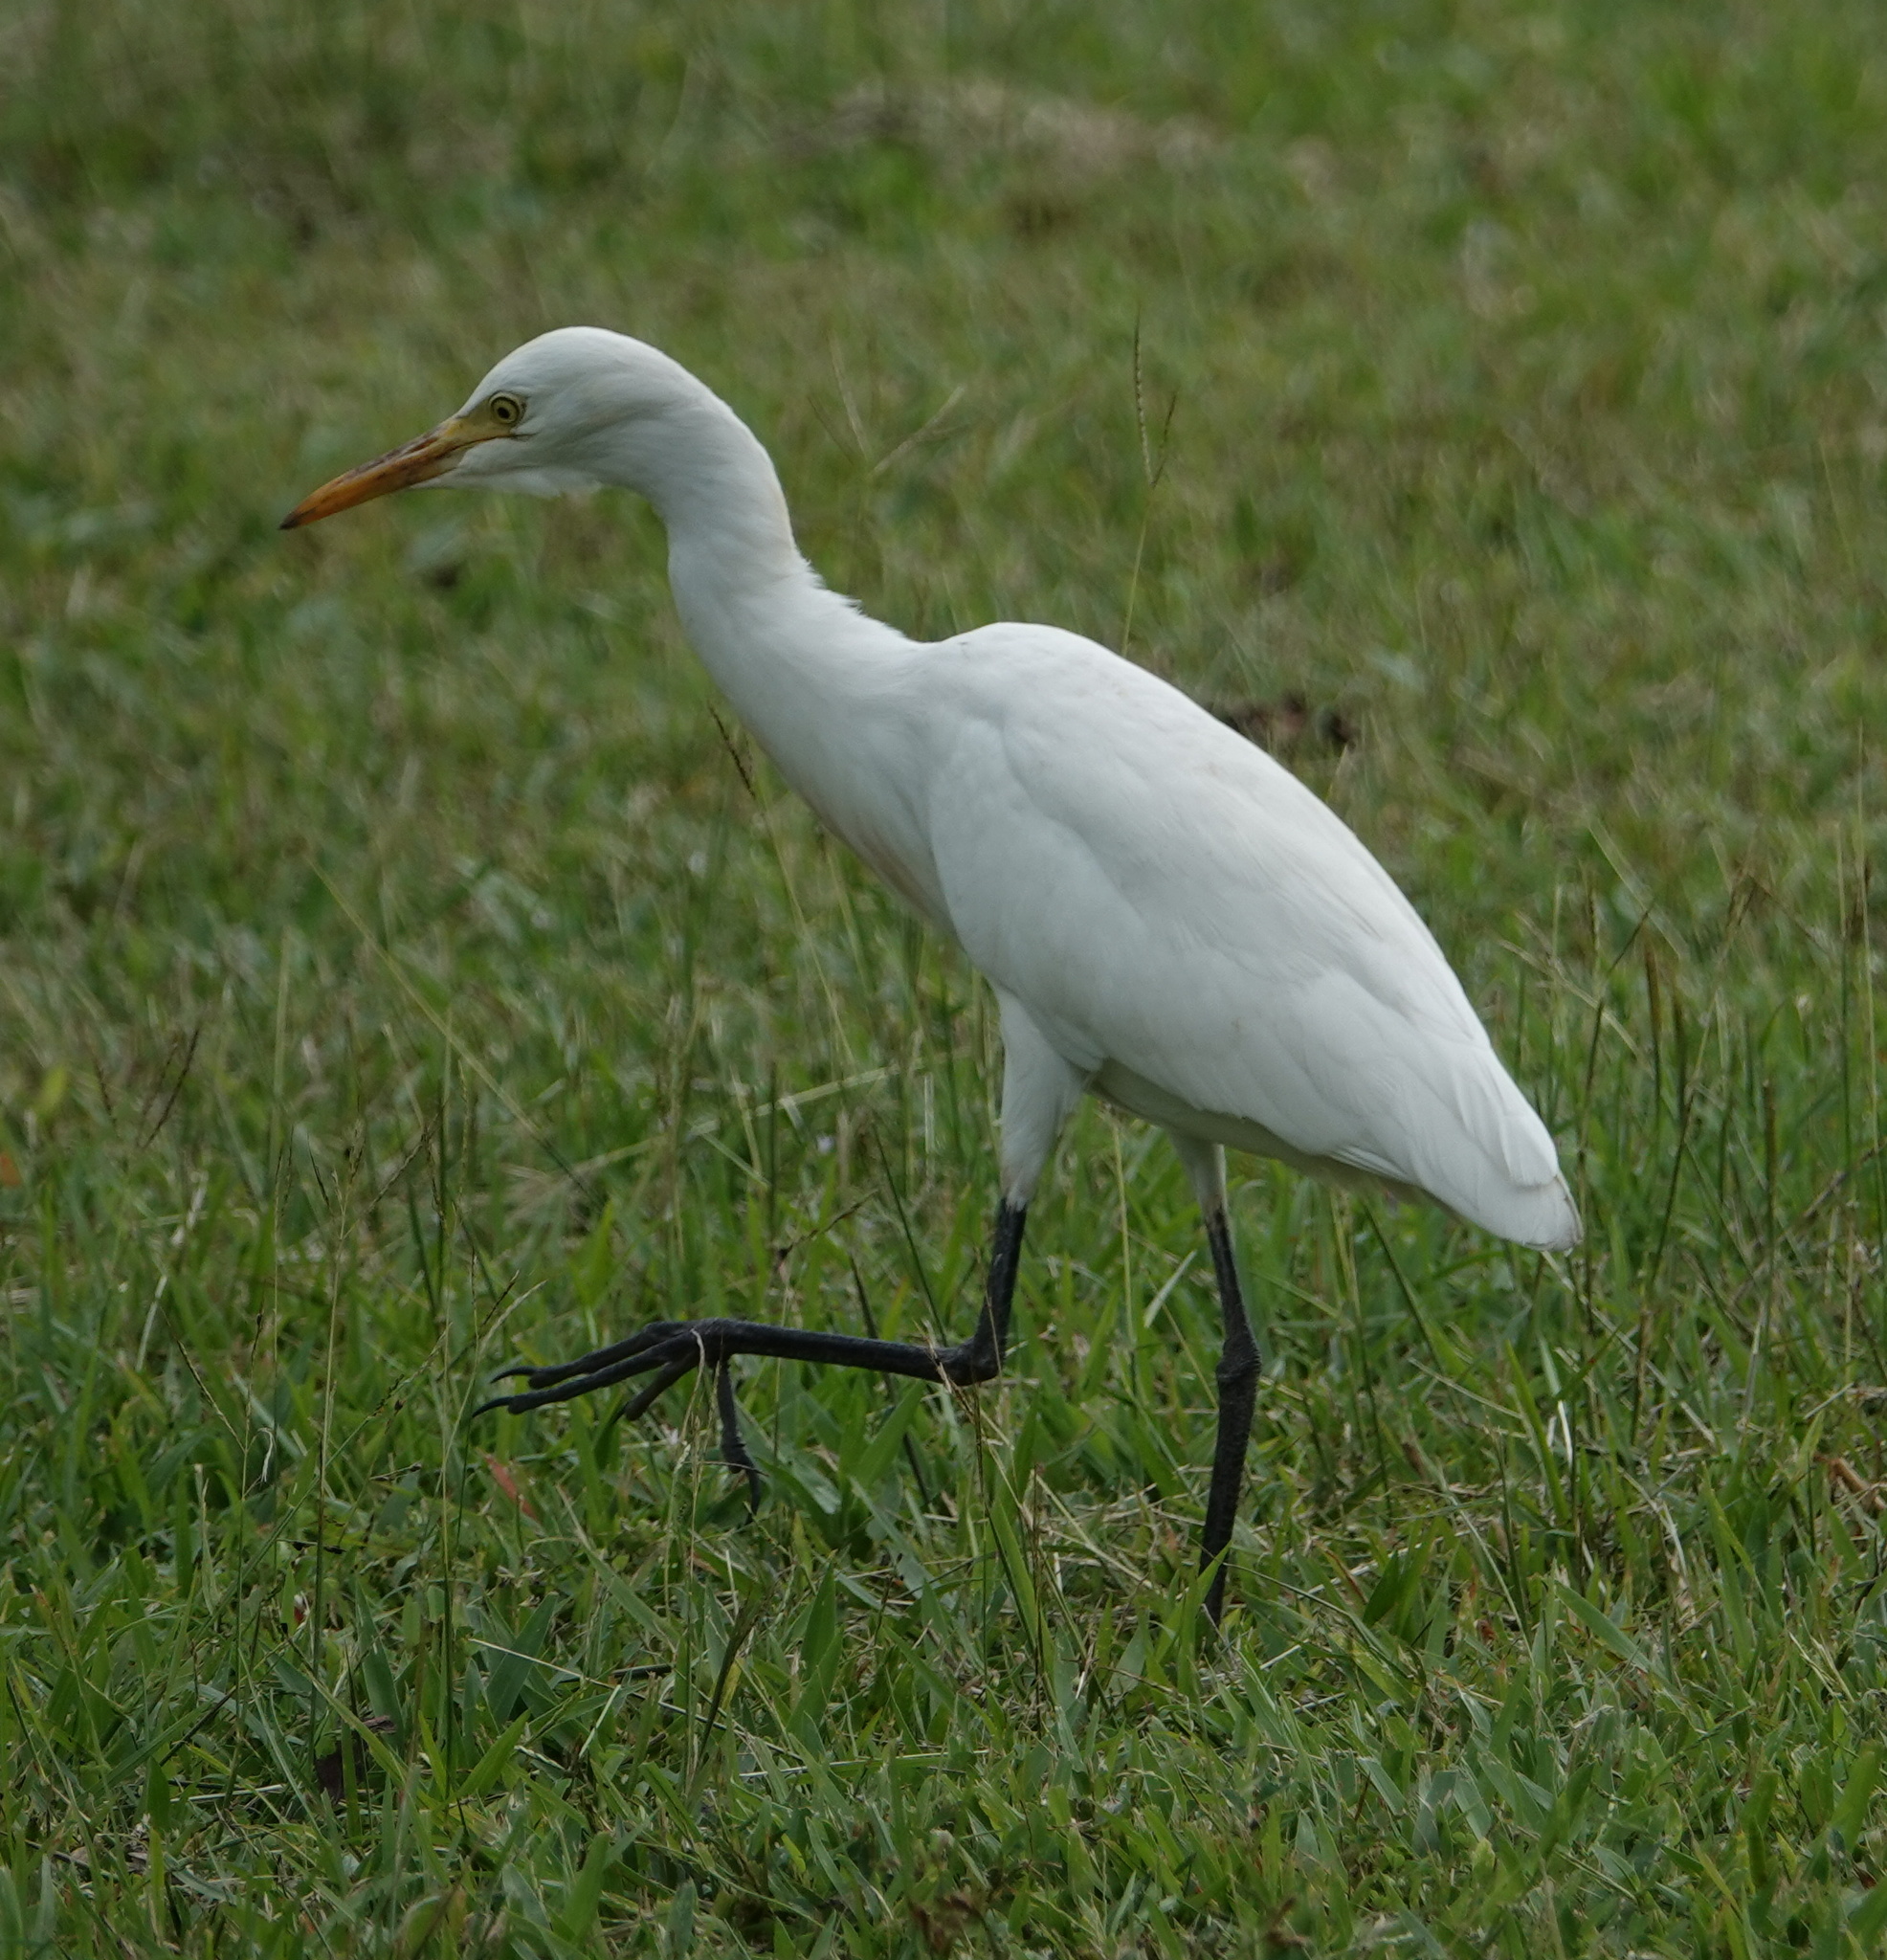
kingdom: Animalia
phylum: Chordata
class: Aves
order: Pelecaniformes
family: Ardeidae
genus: Bubulcus
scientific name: Bubulcus coromandus
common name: Eastern cattle egret
